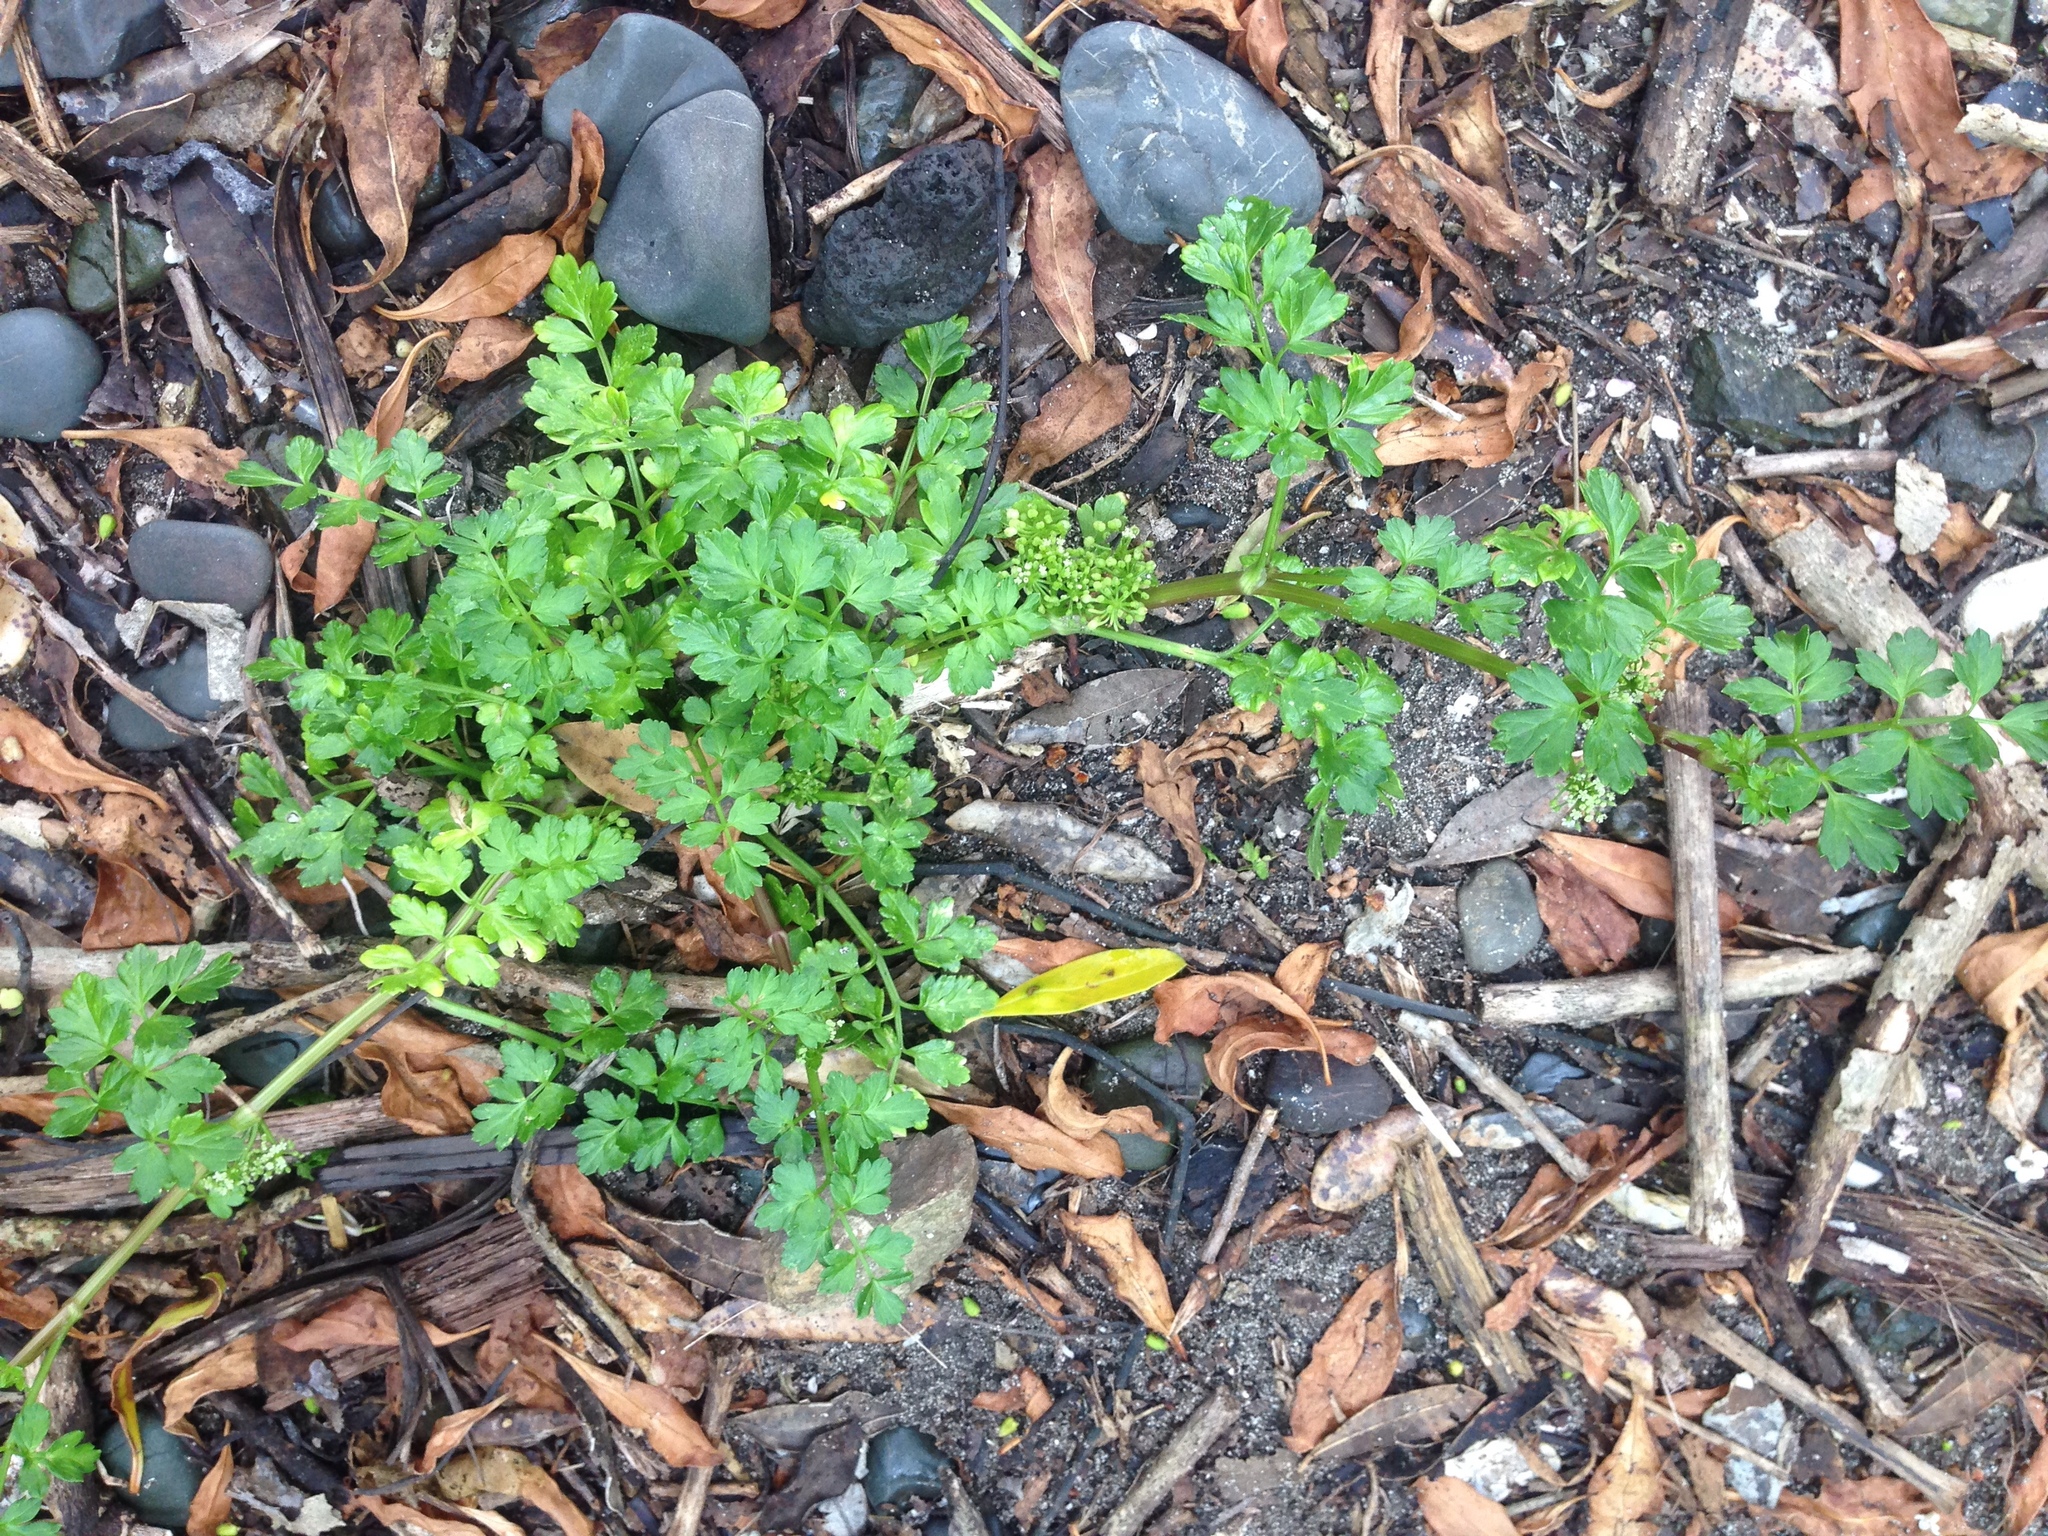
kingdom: Plantae
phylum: Tracheophyta
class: Magnoliopsida
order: Apiales
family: Apiaceae
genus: Apium
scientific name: Apium prostratum
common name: Prostrate marshwort
